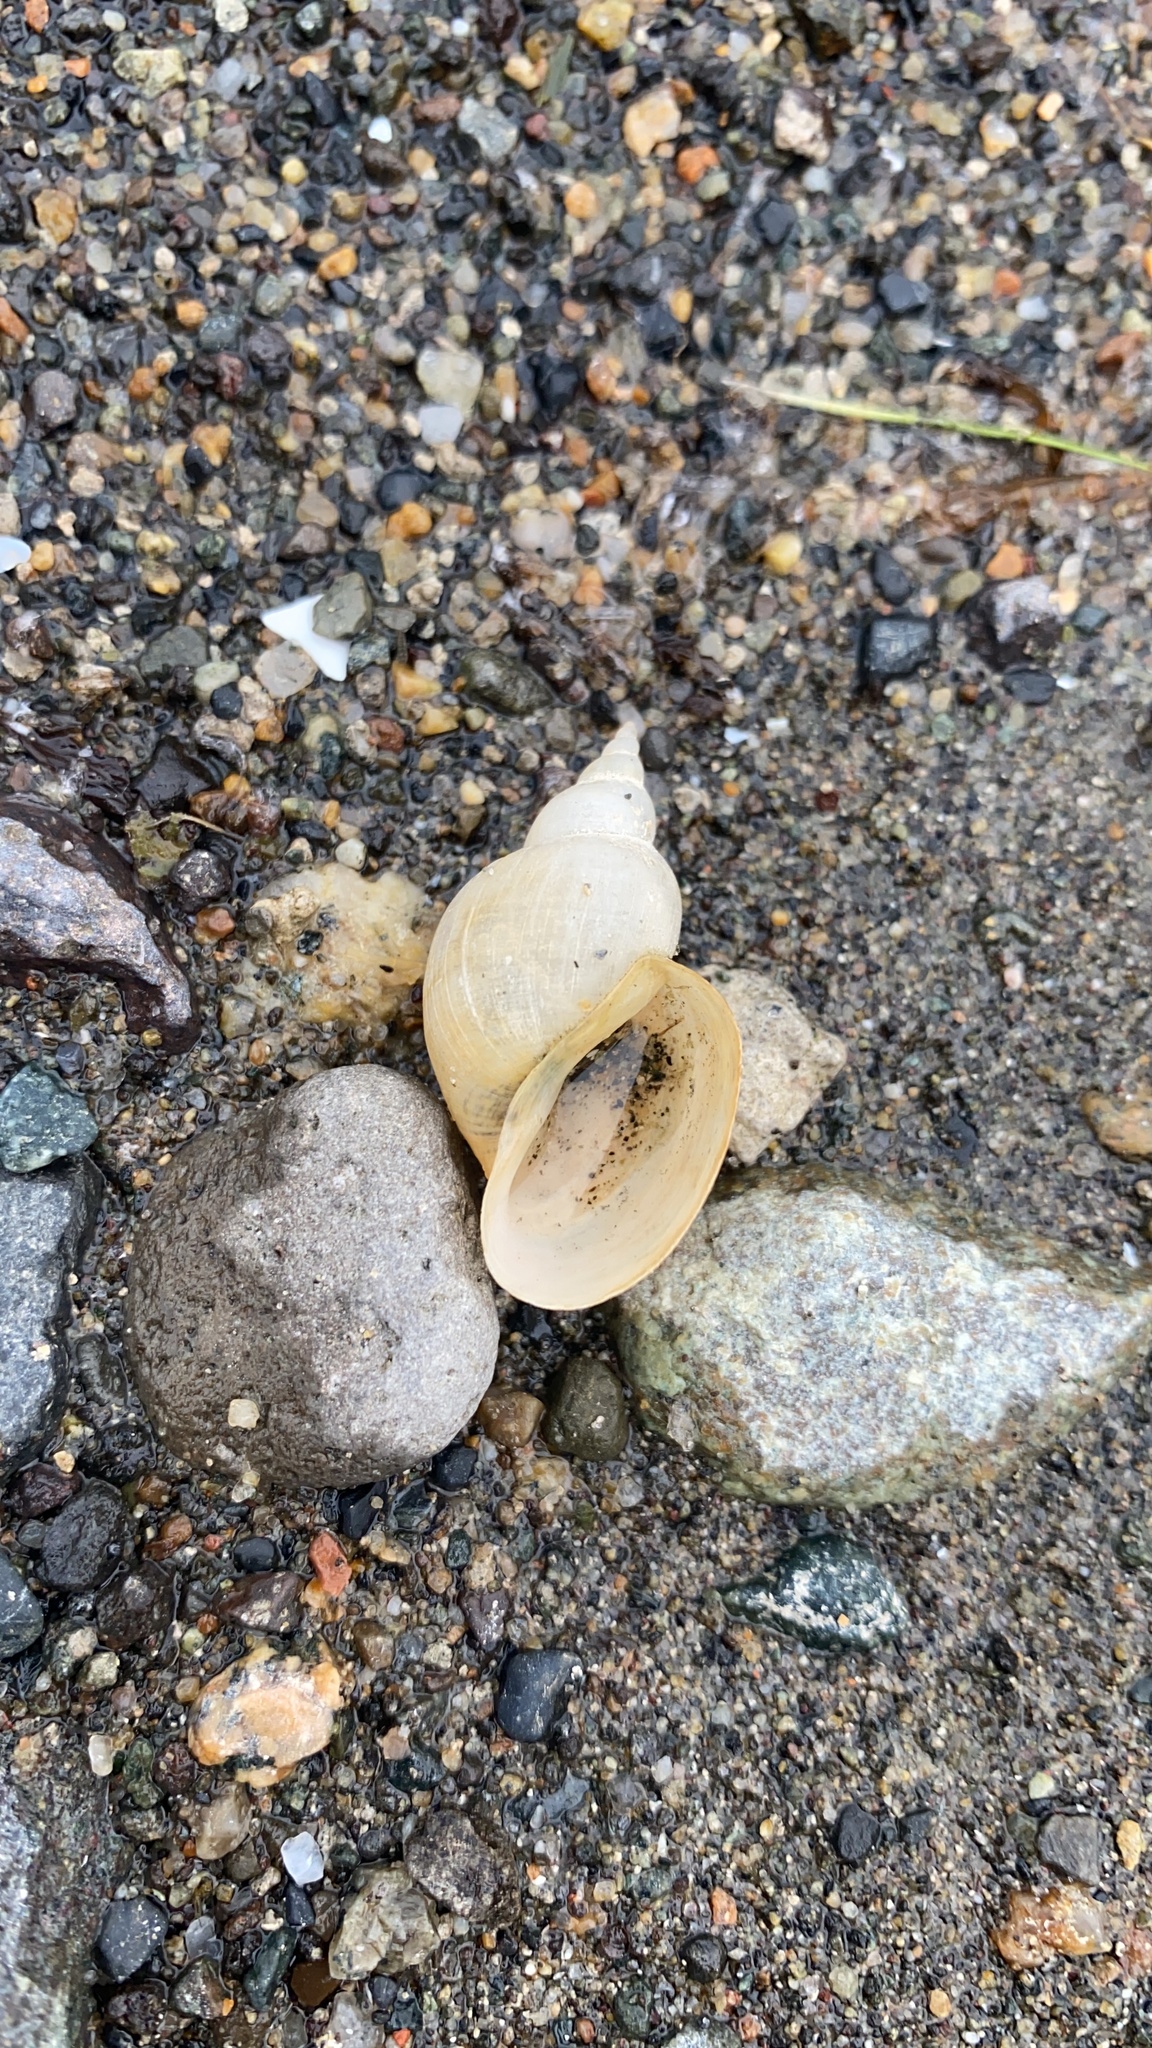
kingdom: Animalia
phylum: Mollusca
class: Gastropoda
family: Lymnaeidae
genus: Lymnaea
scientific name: Lymnaea stagnalis
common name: Great pond snail
